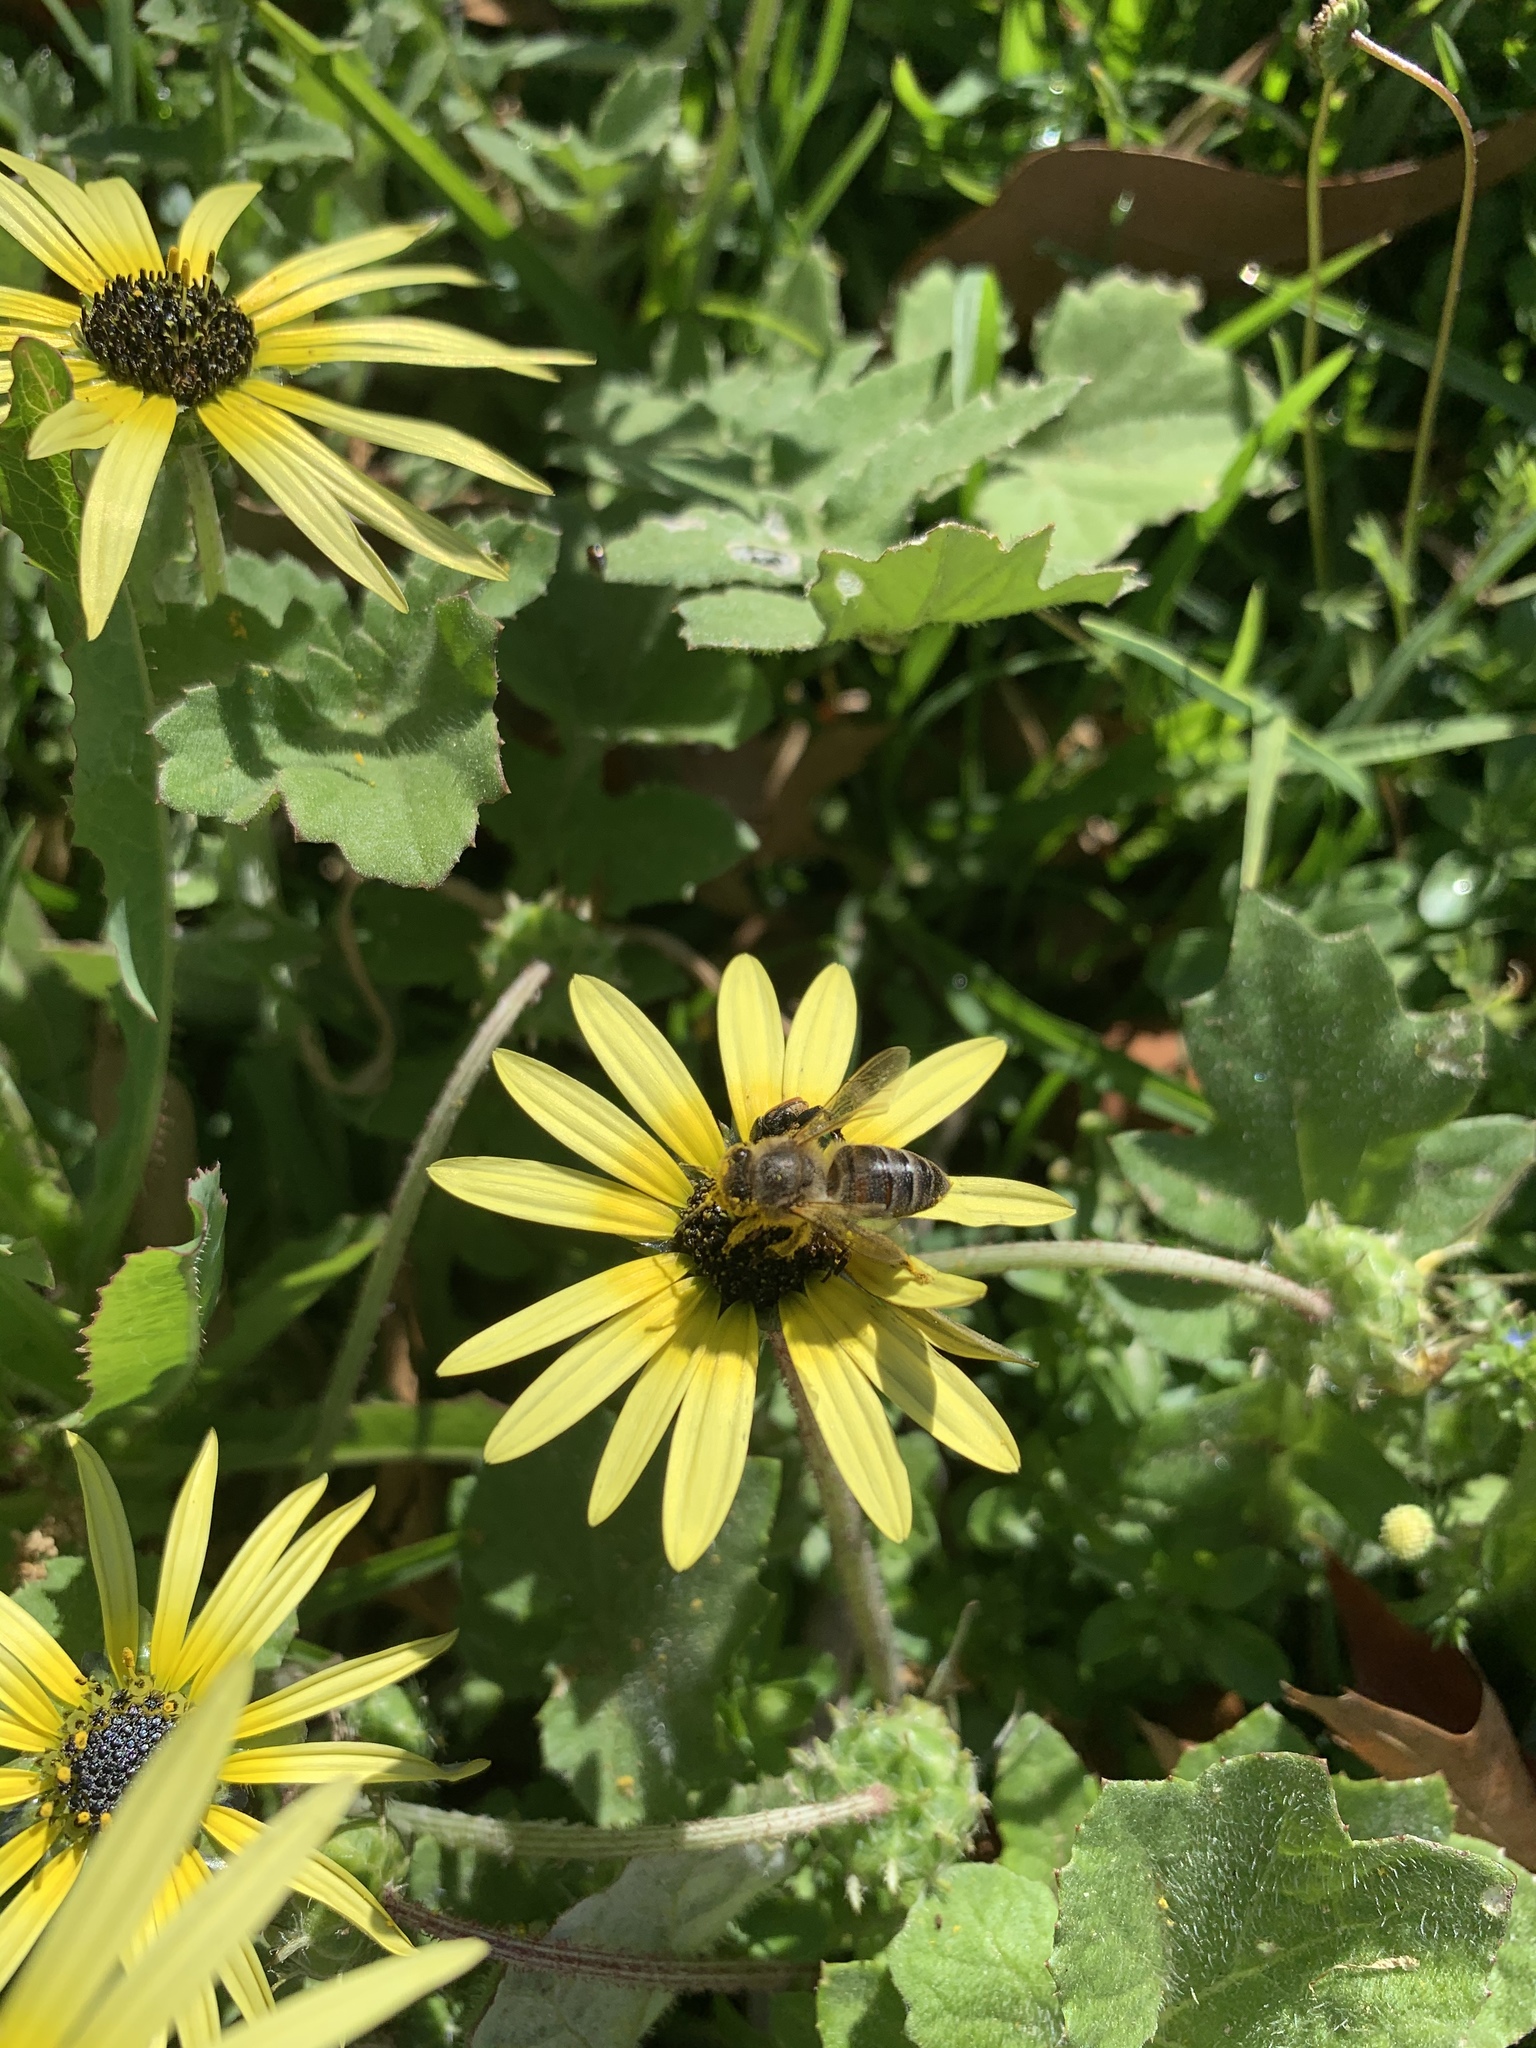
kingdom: Plantae
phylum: Tracheophyta
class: Magnoliopsida
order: Asterales
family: Asteraceae
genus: Arctotheca
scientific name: Arctotheca calendula
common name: Capeweed
